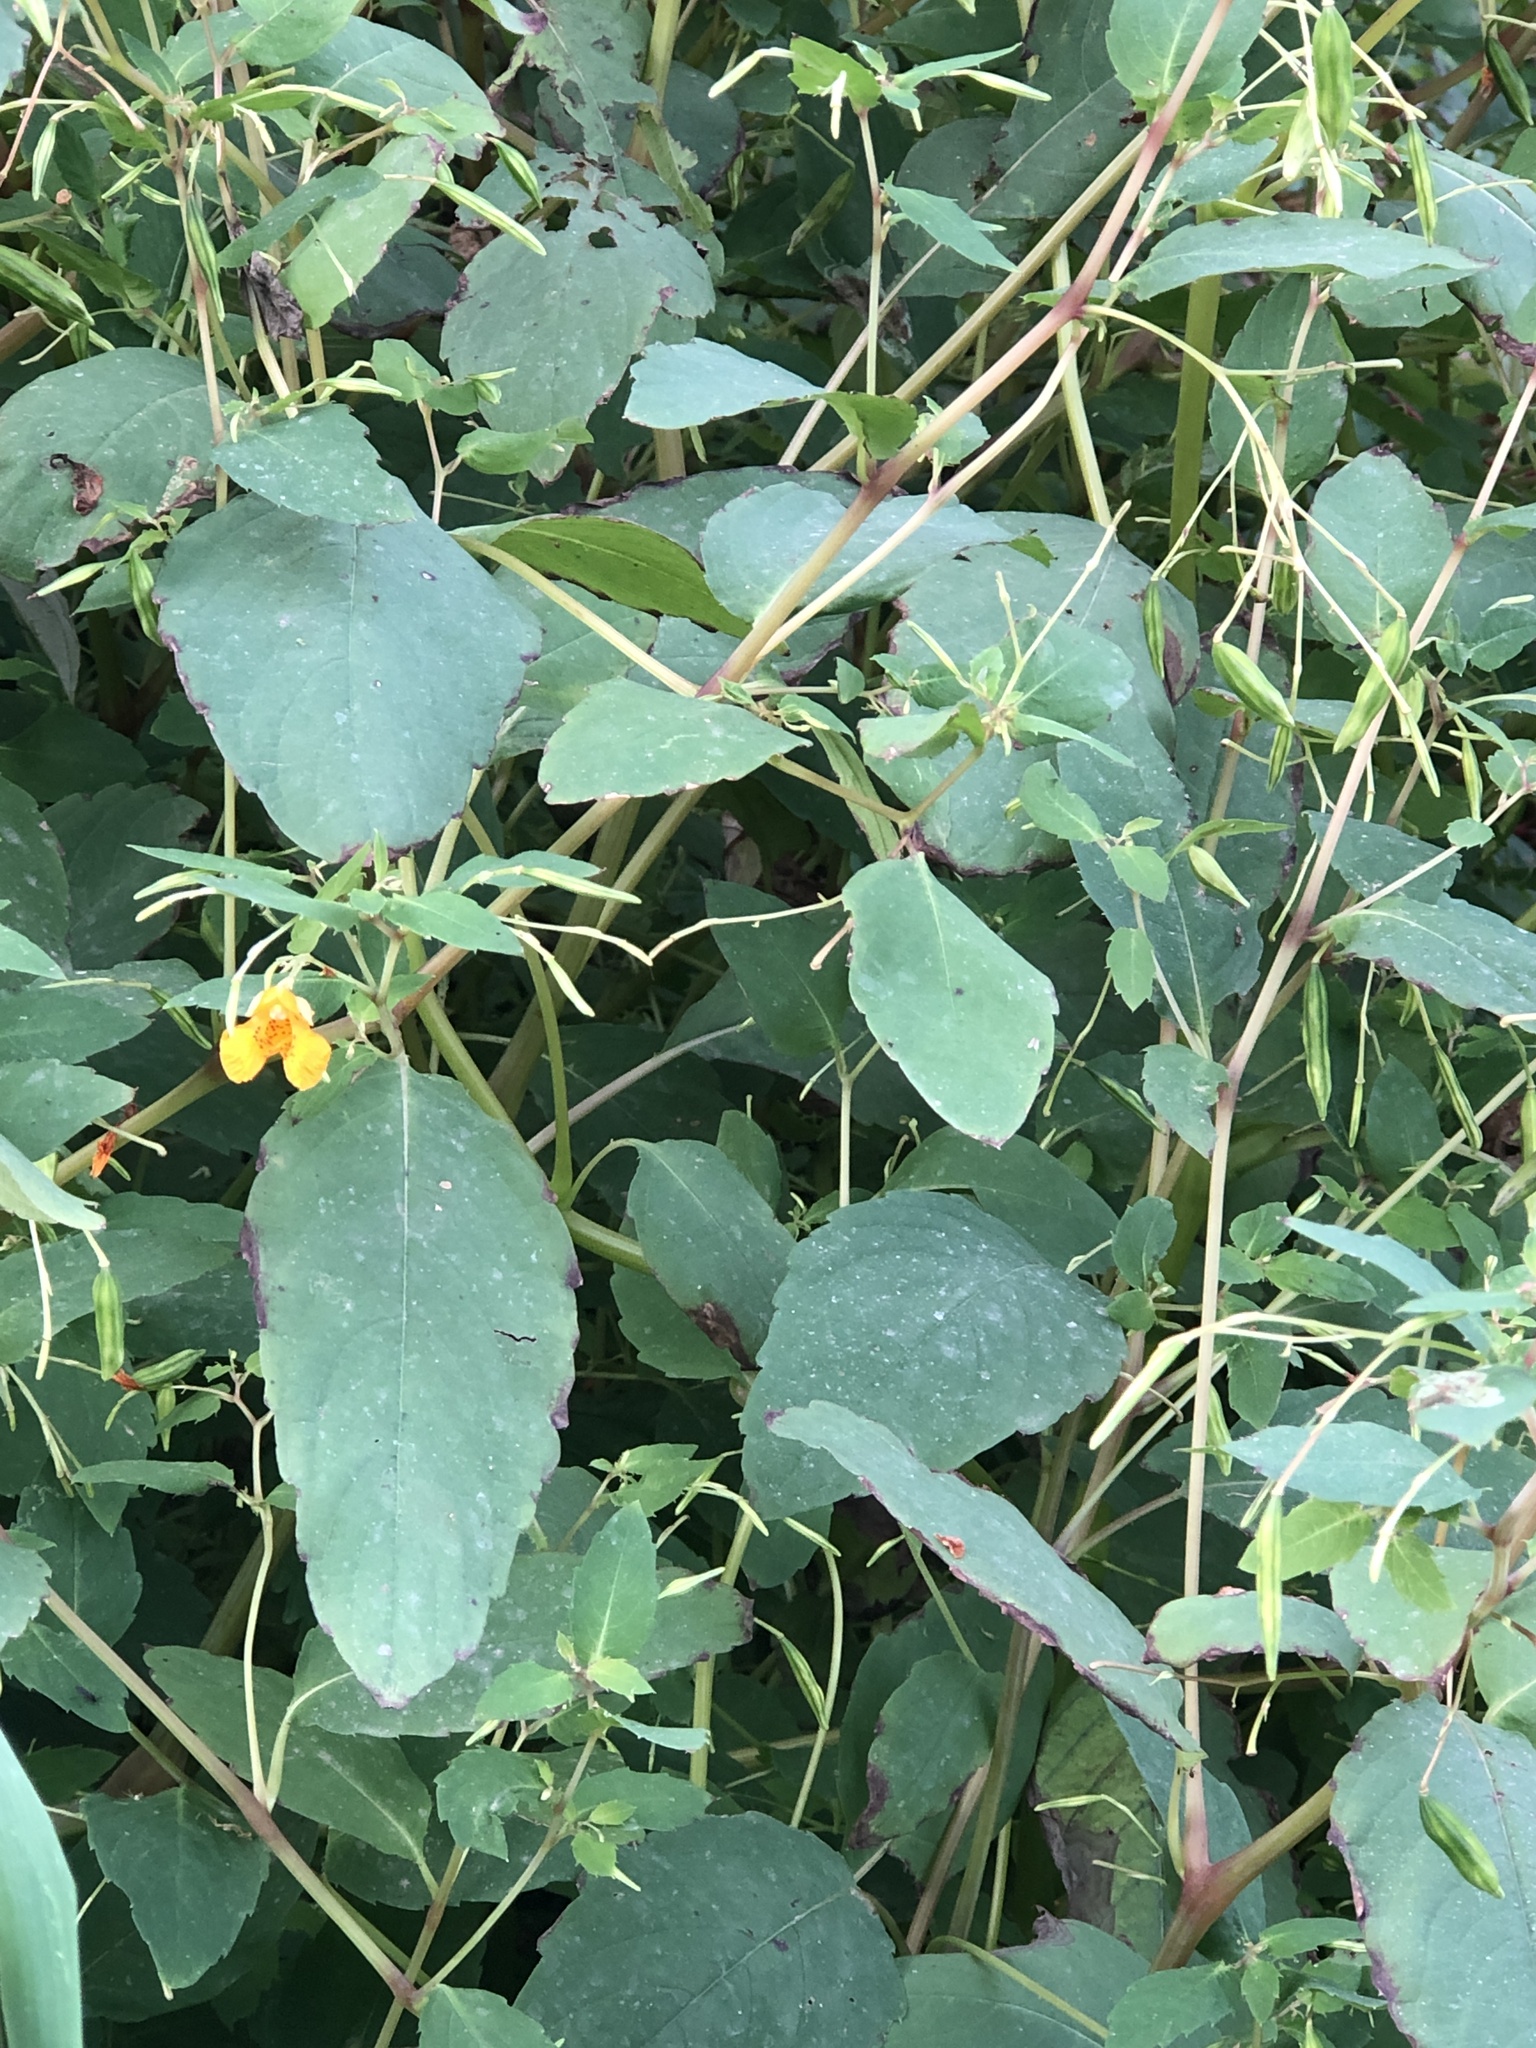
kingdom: Plantae
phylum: Tracheophyta
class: Magnoliopsida
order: Ericales
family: Balsaminaceae
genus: Impatiens
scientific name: Impatiens capensis
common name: Orange balsam
